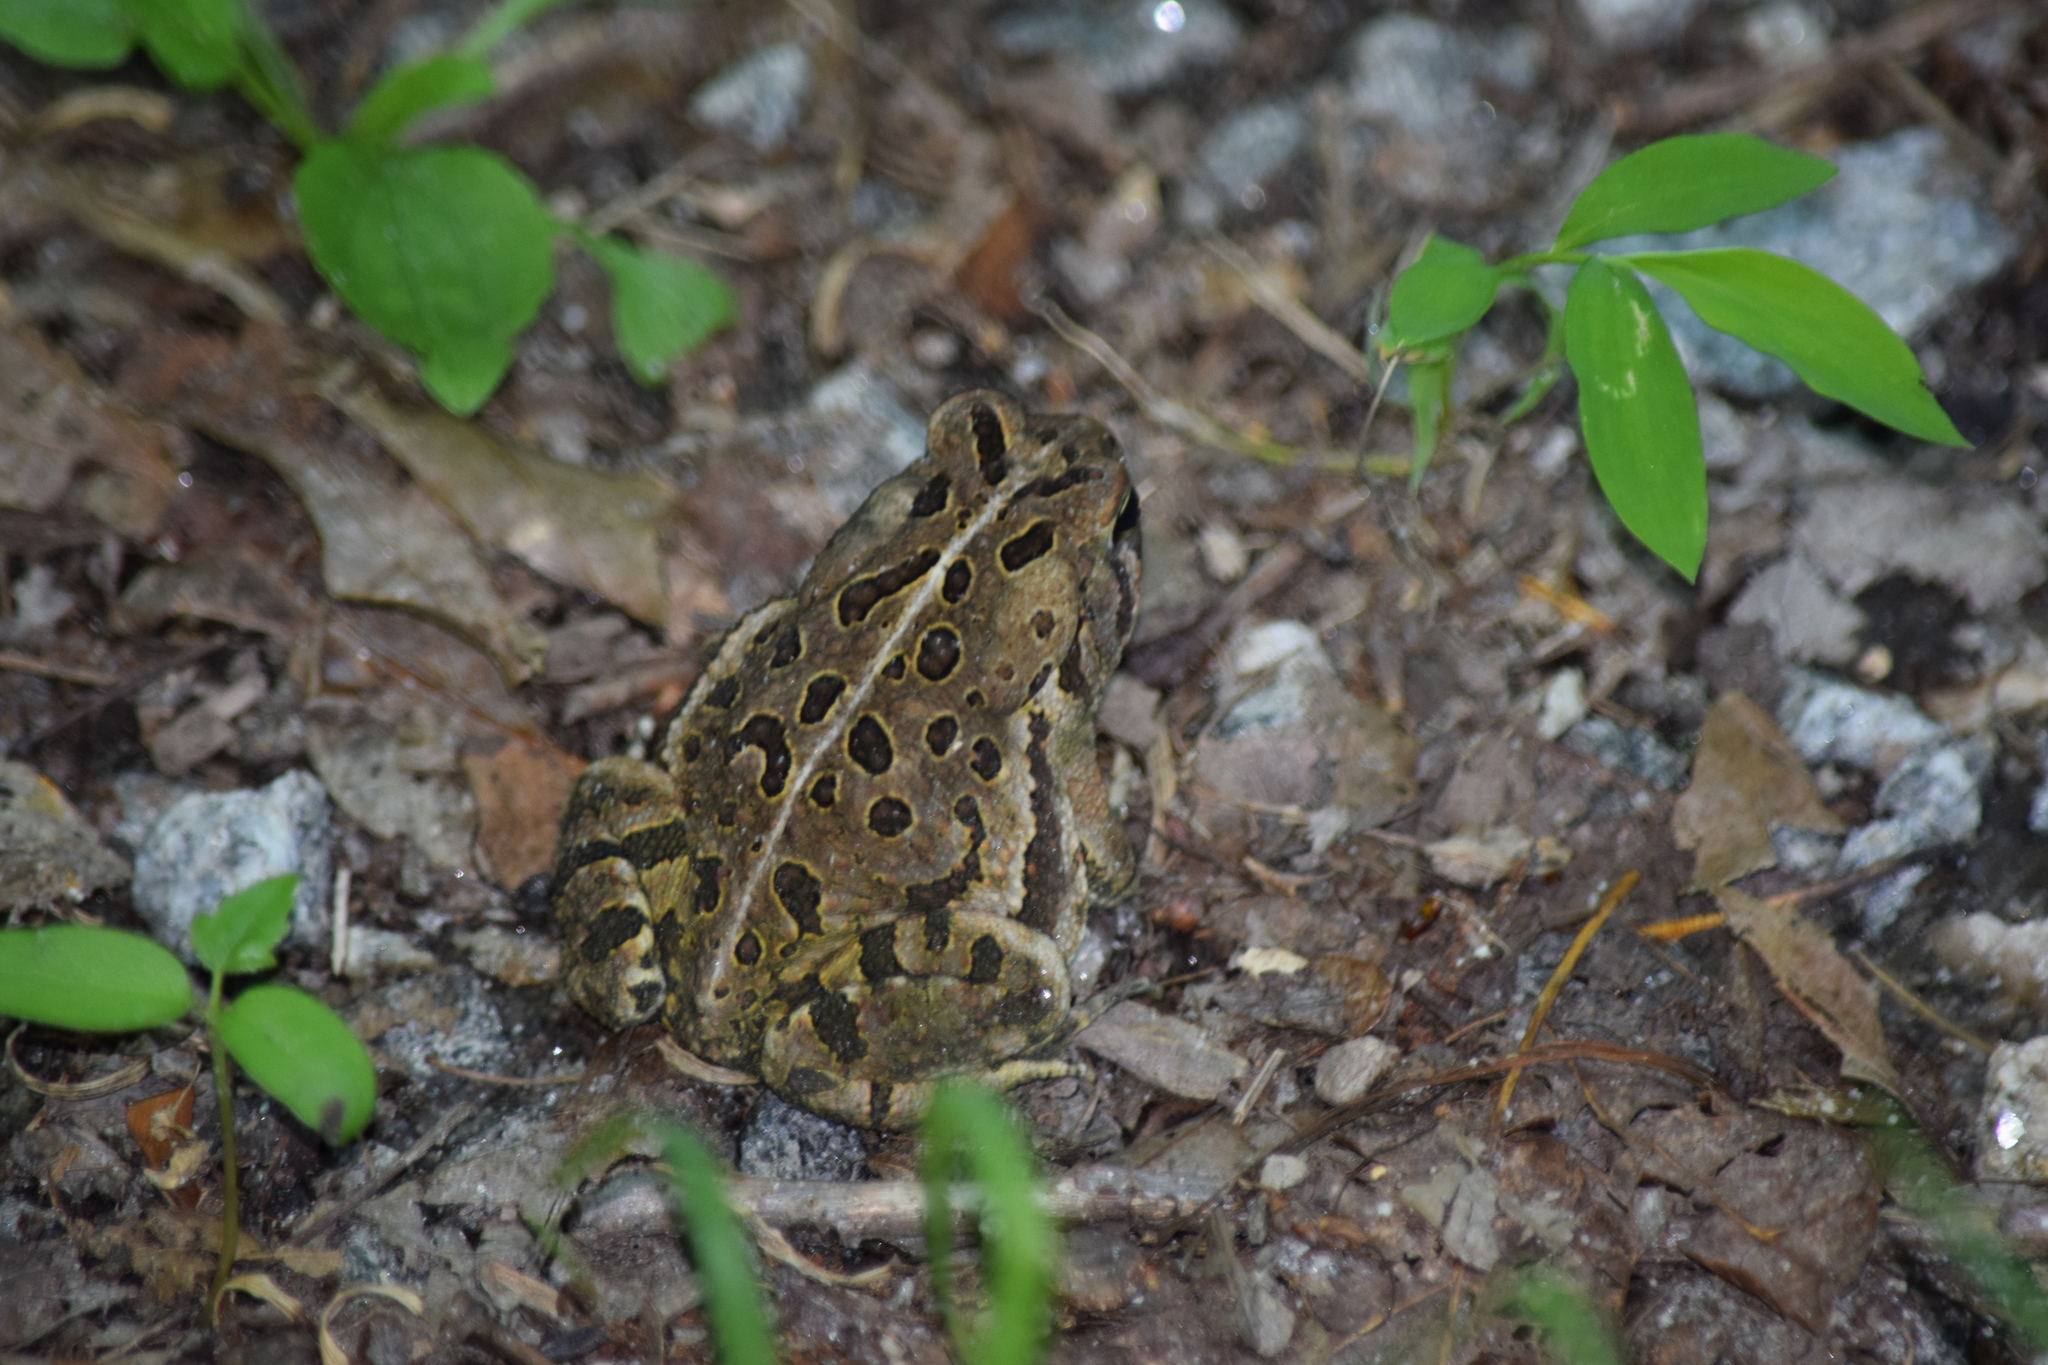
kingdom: Animalia
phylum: Chordata
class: Amphibia
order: Anura
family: Bufonidae
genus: Anaxyrus
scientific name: Anaxyrus fowleri
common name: Fowler's toad
